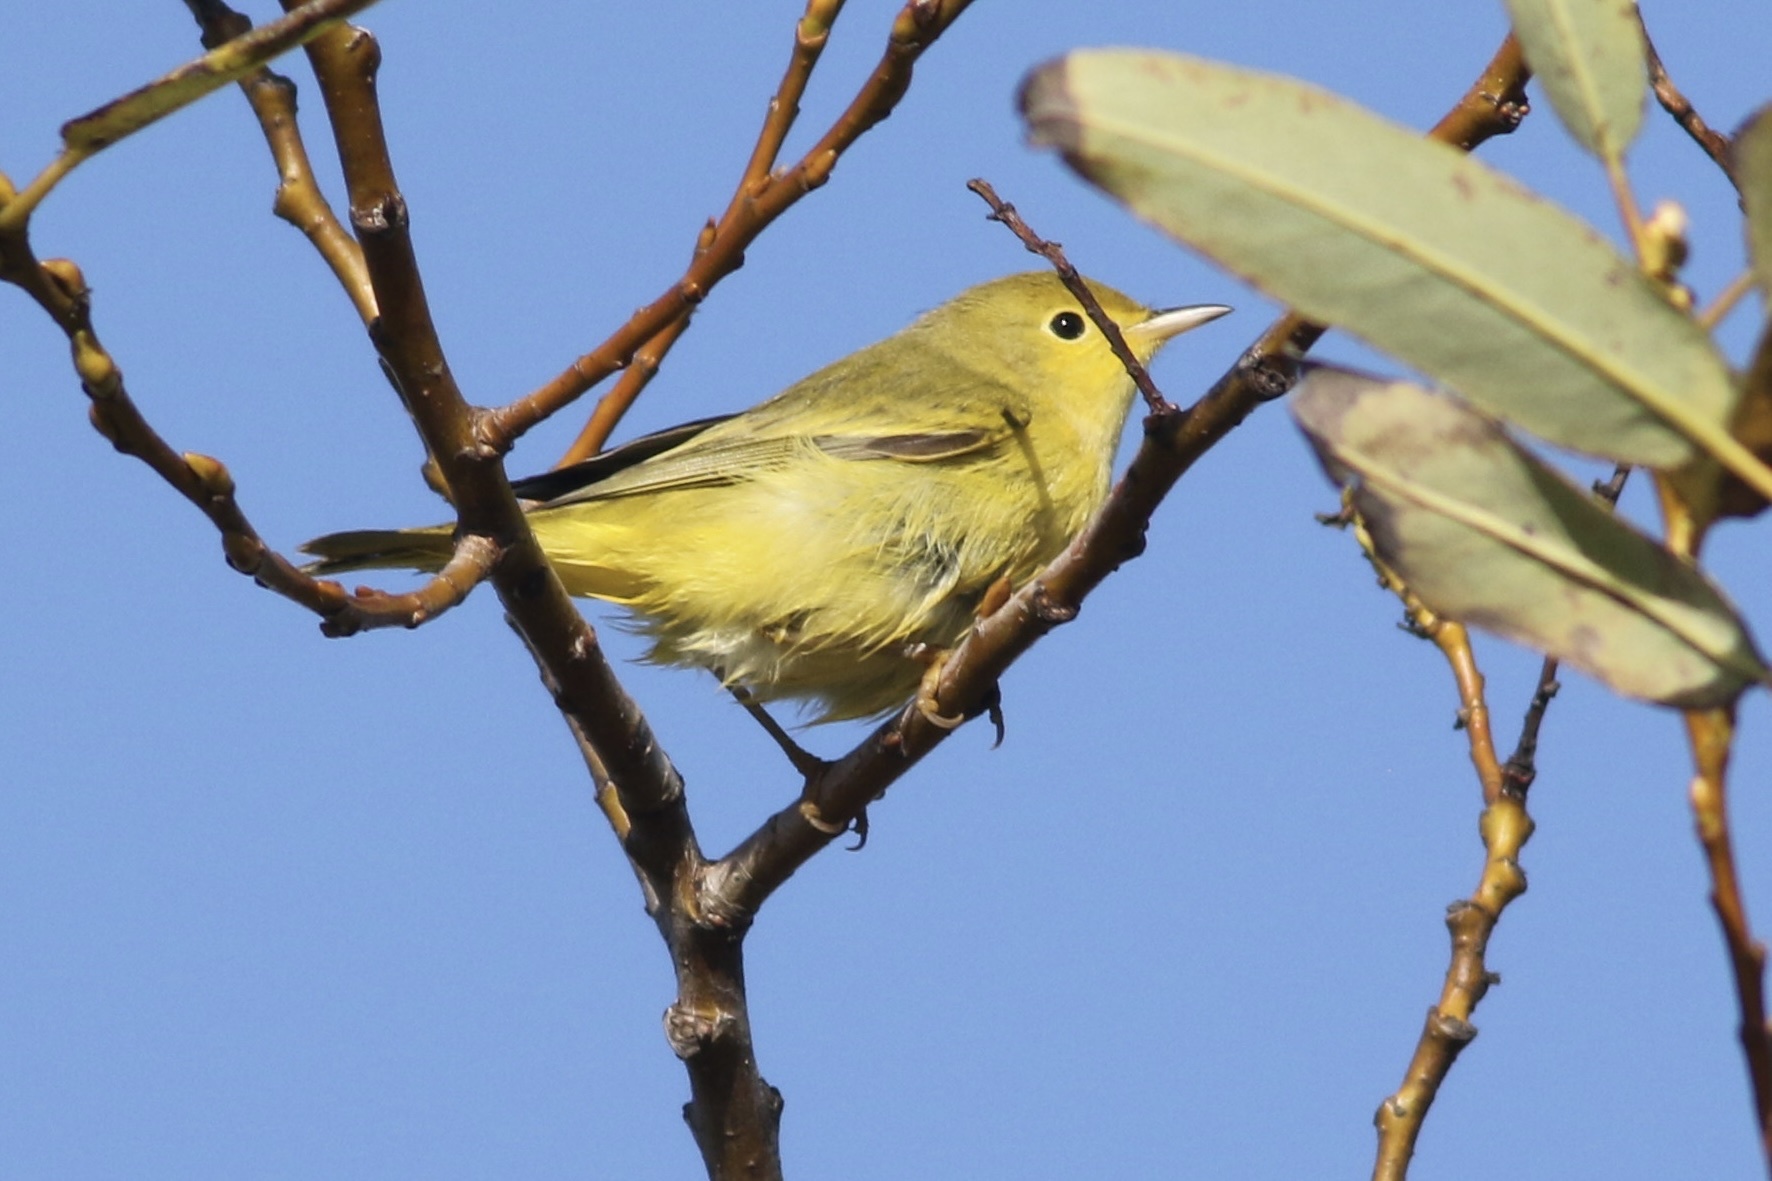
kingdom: Animalia
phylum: Chordata
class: Aves
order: Passeriformes
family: Parulidae
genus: Setophaga
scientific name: Setophaga petechia
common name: Yellow warbler
